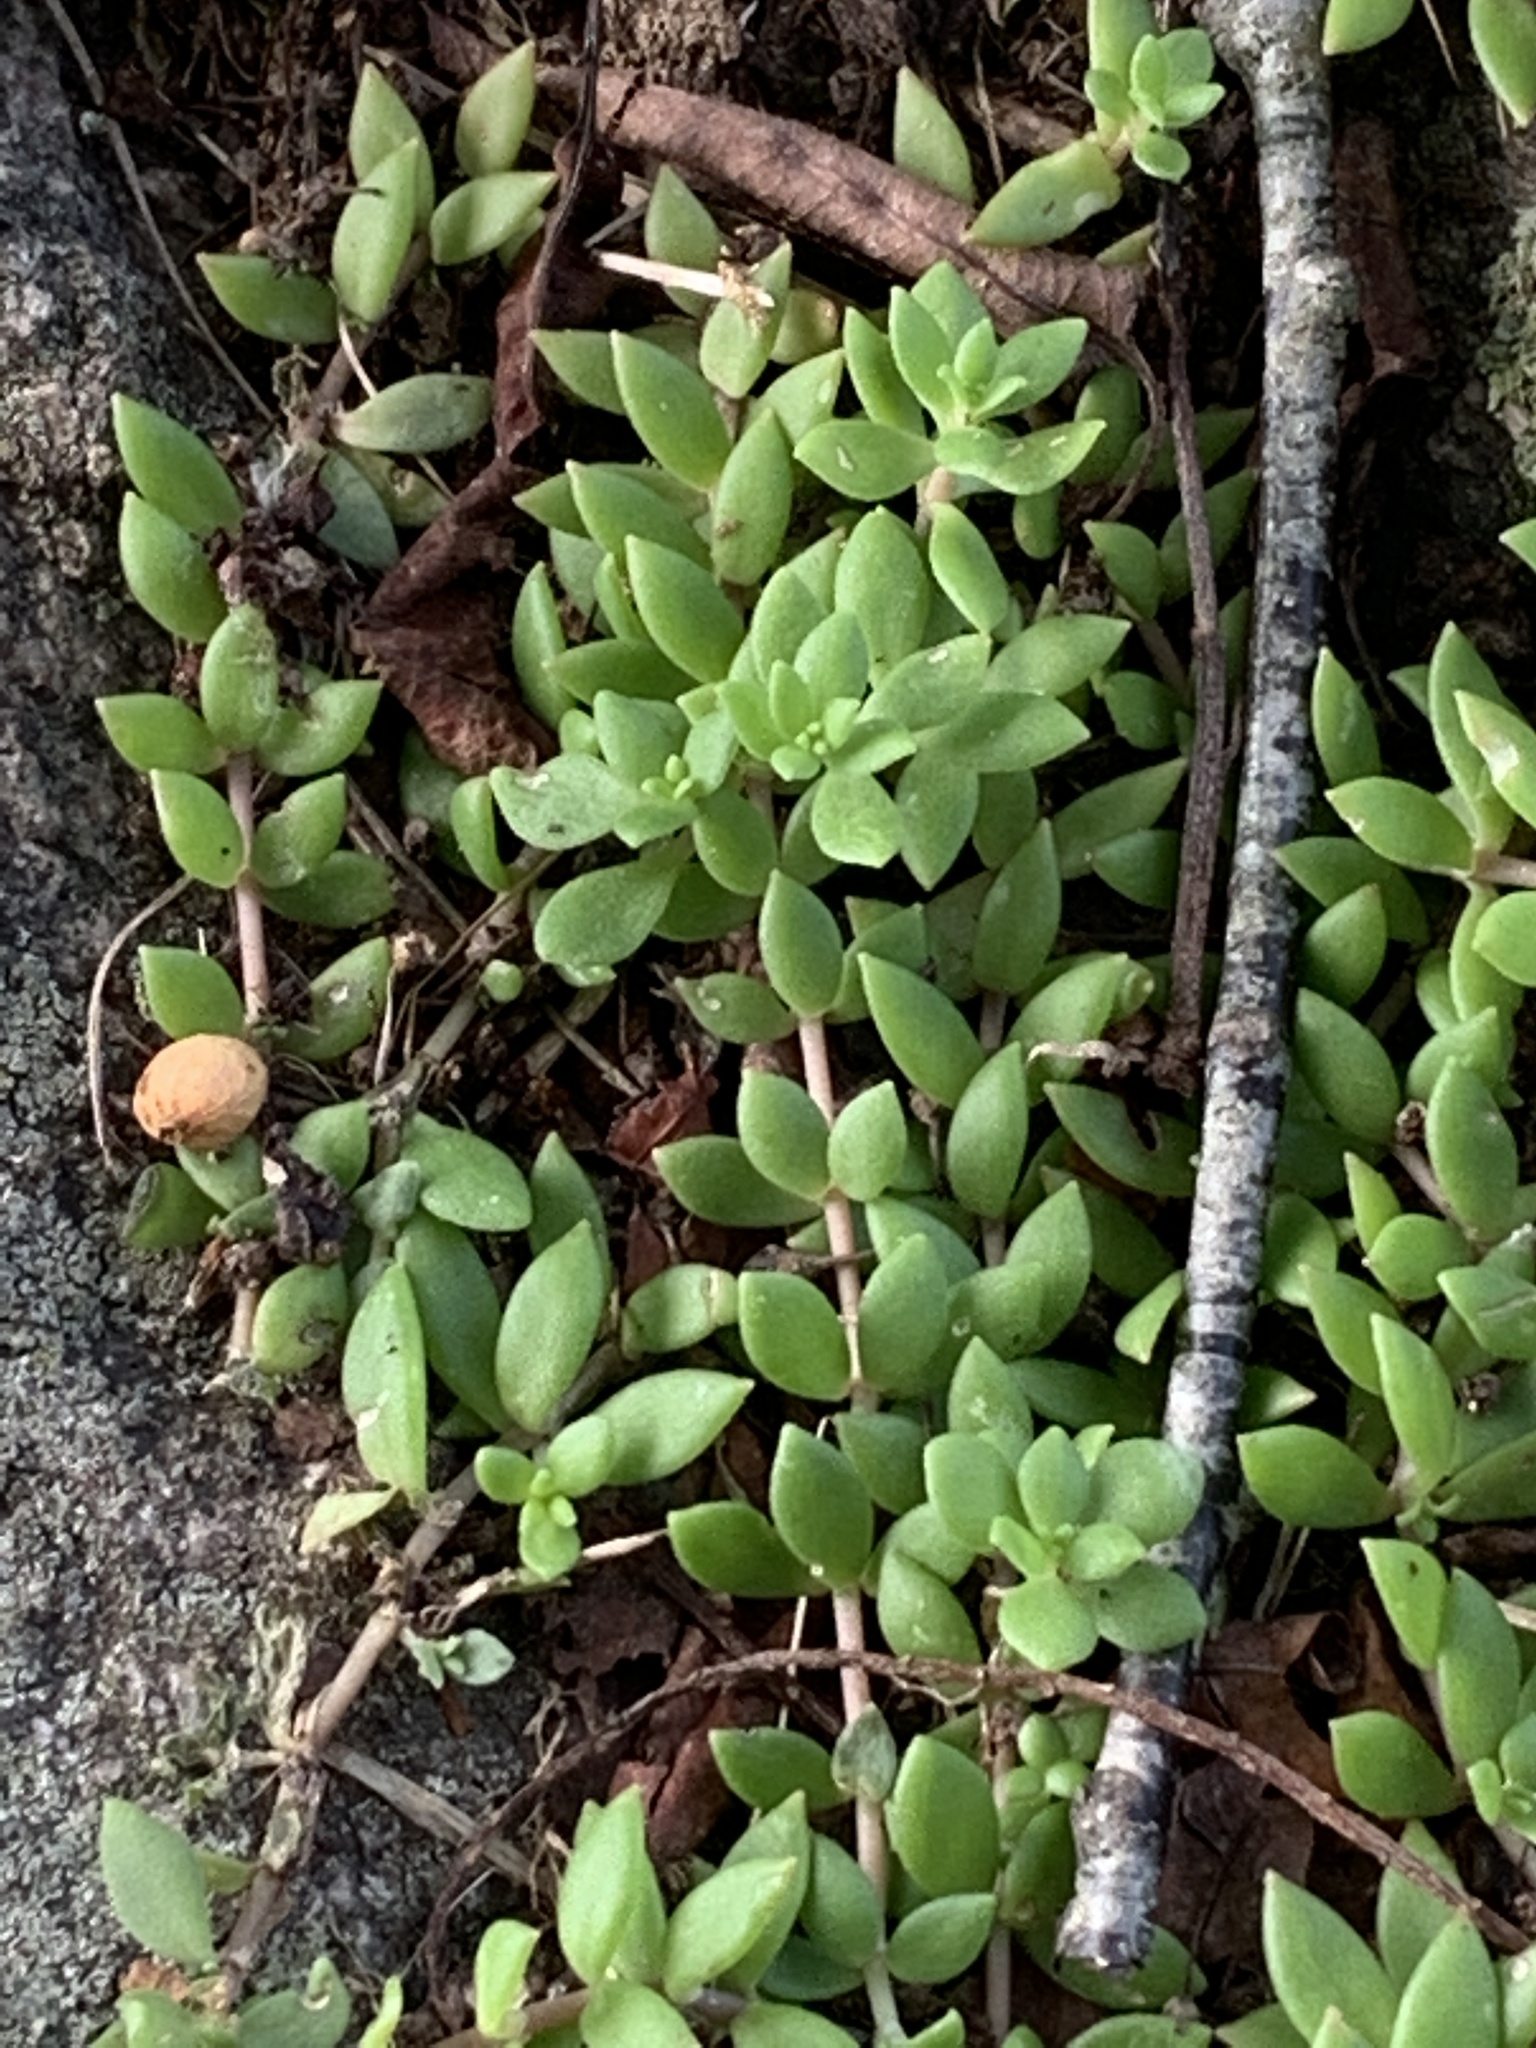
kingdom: Plantae
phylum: Tracheophyta
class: Magnoliopsida
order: Saxifragales
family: Crassulaceae
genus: Sedum
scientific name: Sedum sarmentosum
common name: Stringy stonecrop
